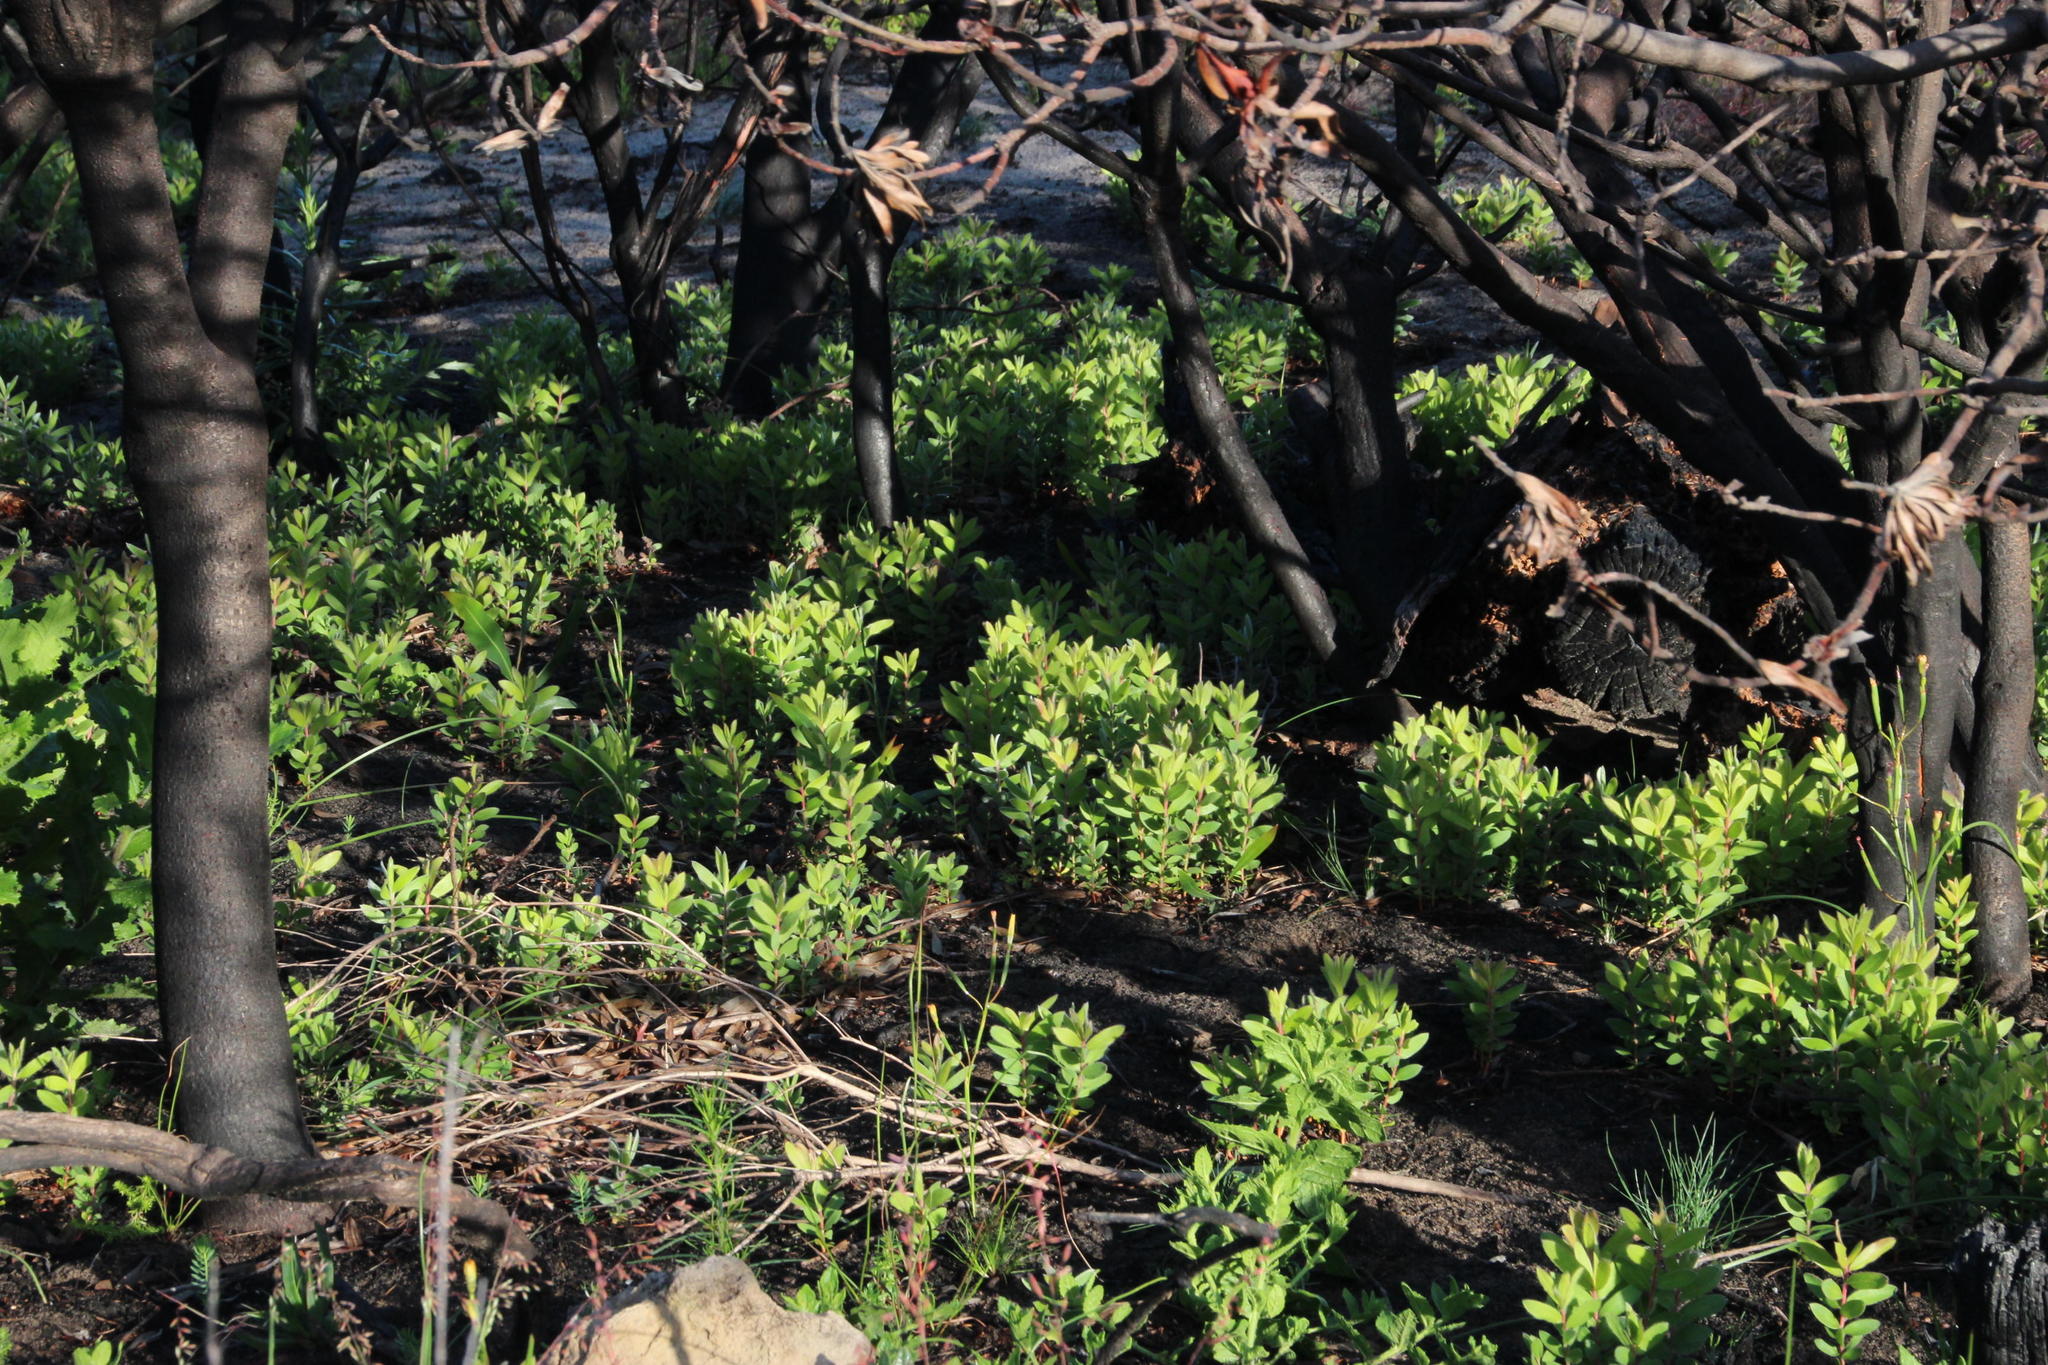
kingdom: Plantae
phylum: Tracheophyta
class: Magnoliopsida
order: Proteales
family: Proteaceae
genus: Protea
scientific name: Protea lepidocarpodendron
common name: Black-bearded protea
